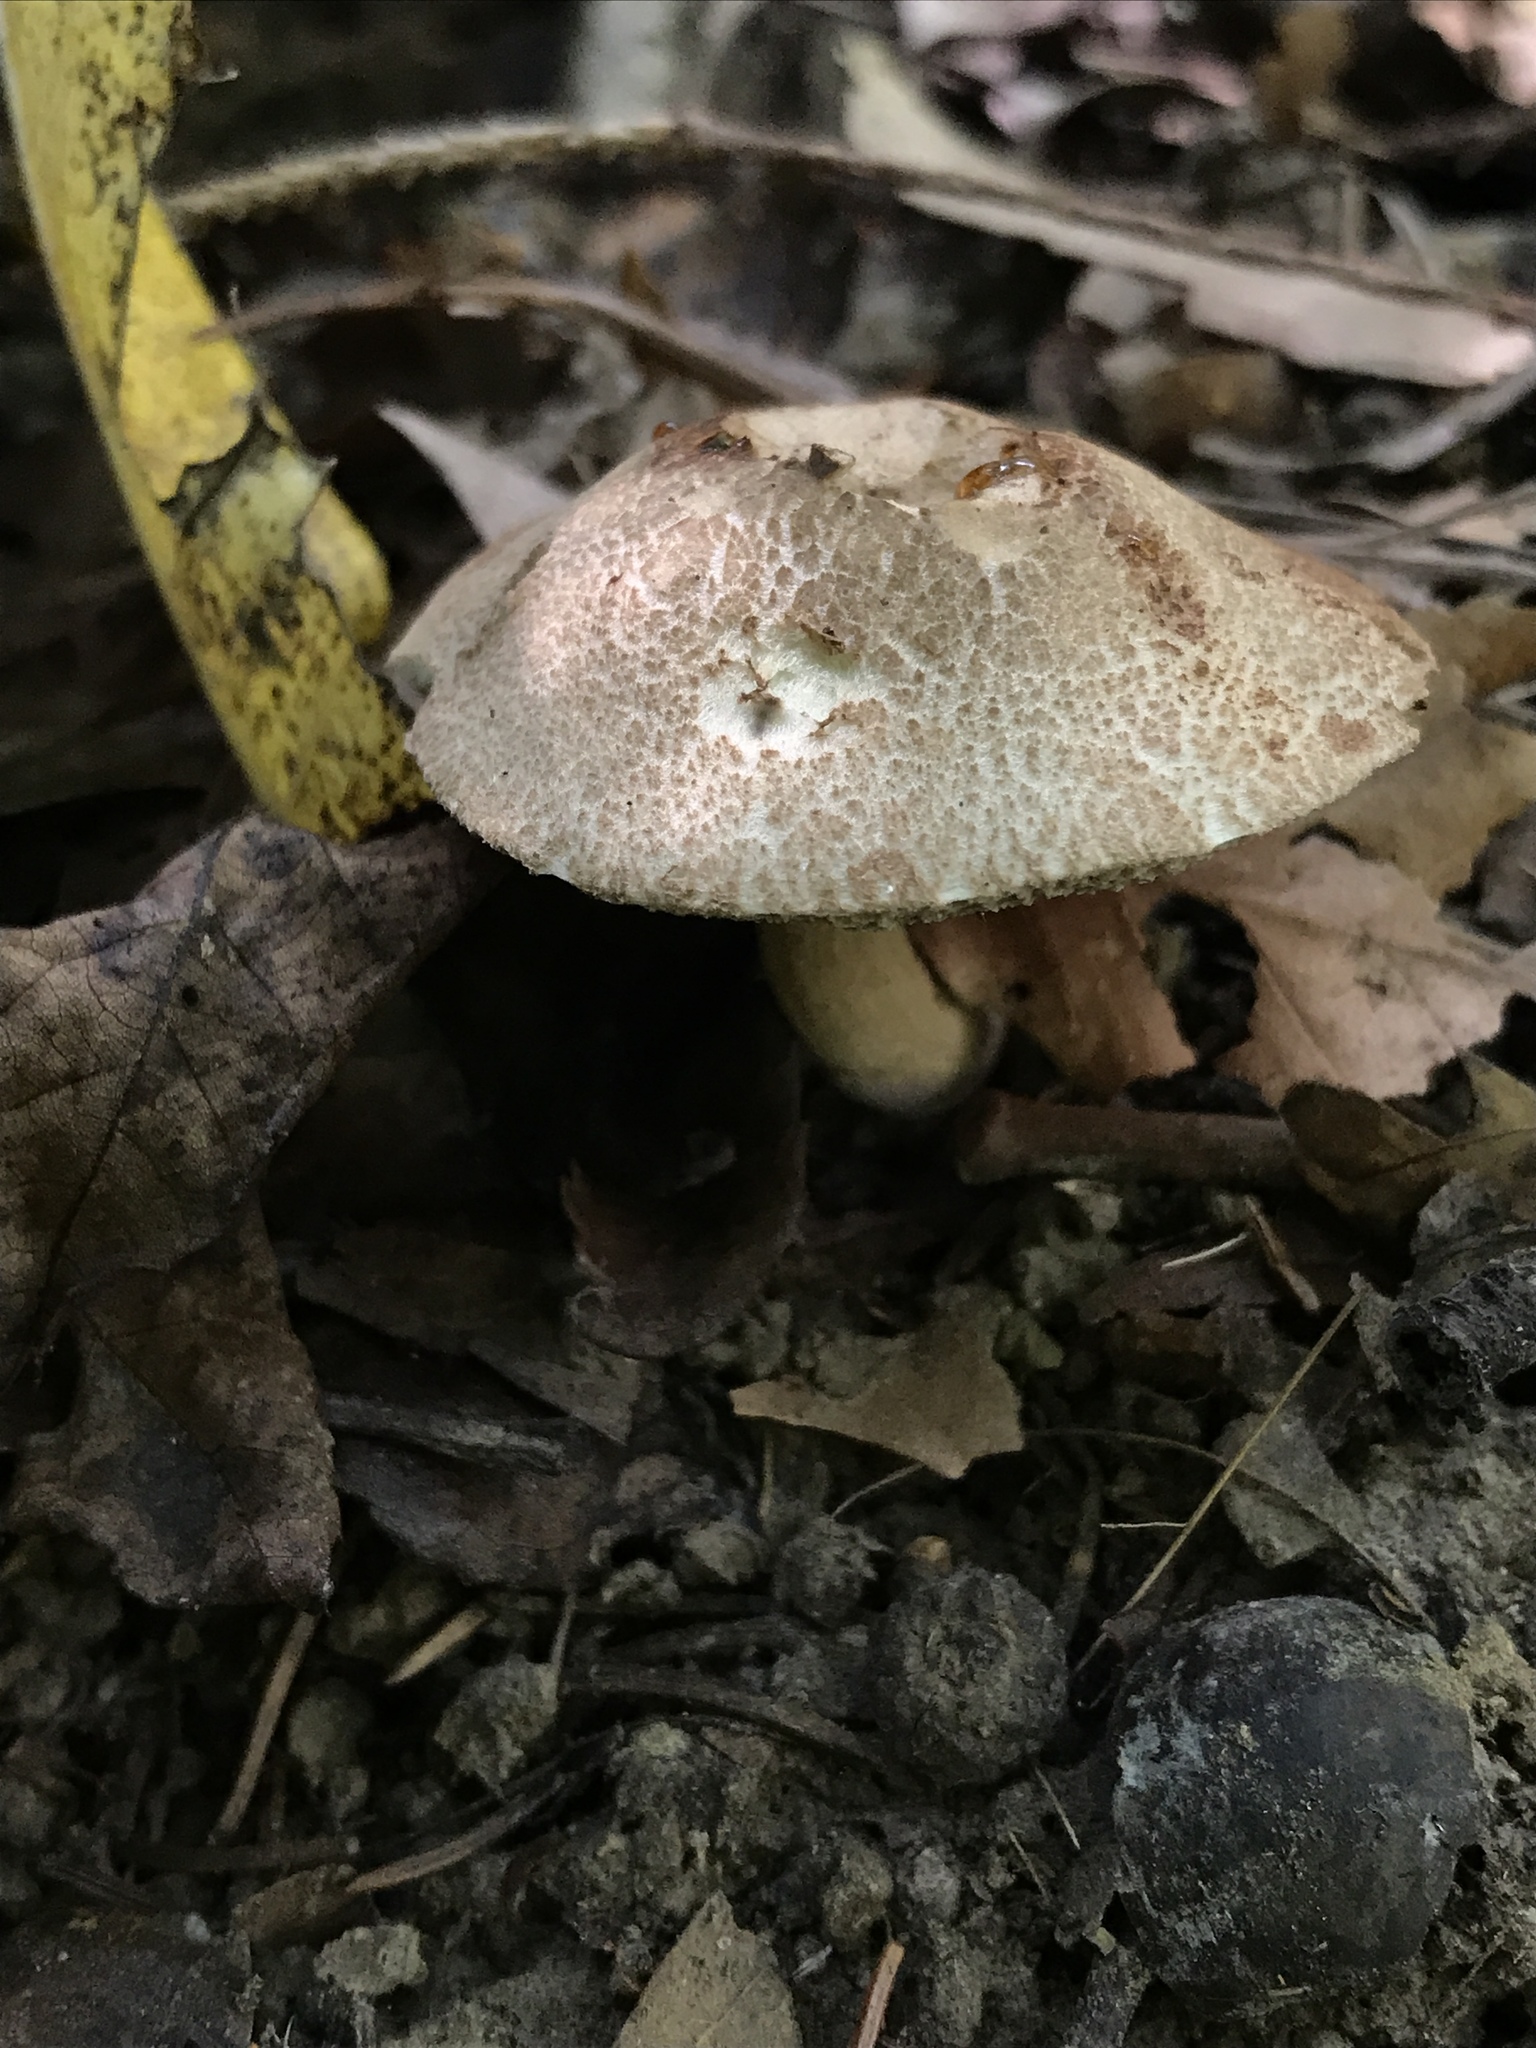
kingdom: Fungi
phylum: Basidiomycota
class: Agaricomycetes
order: Boletales
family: Boletaceae
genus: Porphyrellus
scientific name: Porphyrellus sordidus
